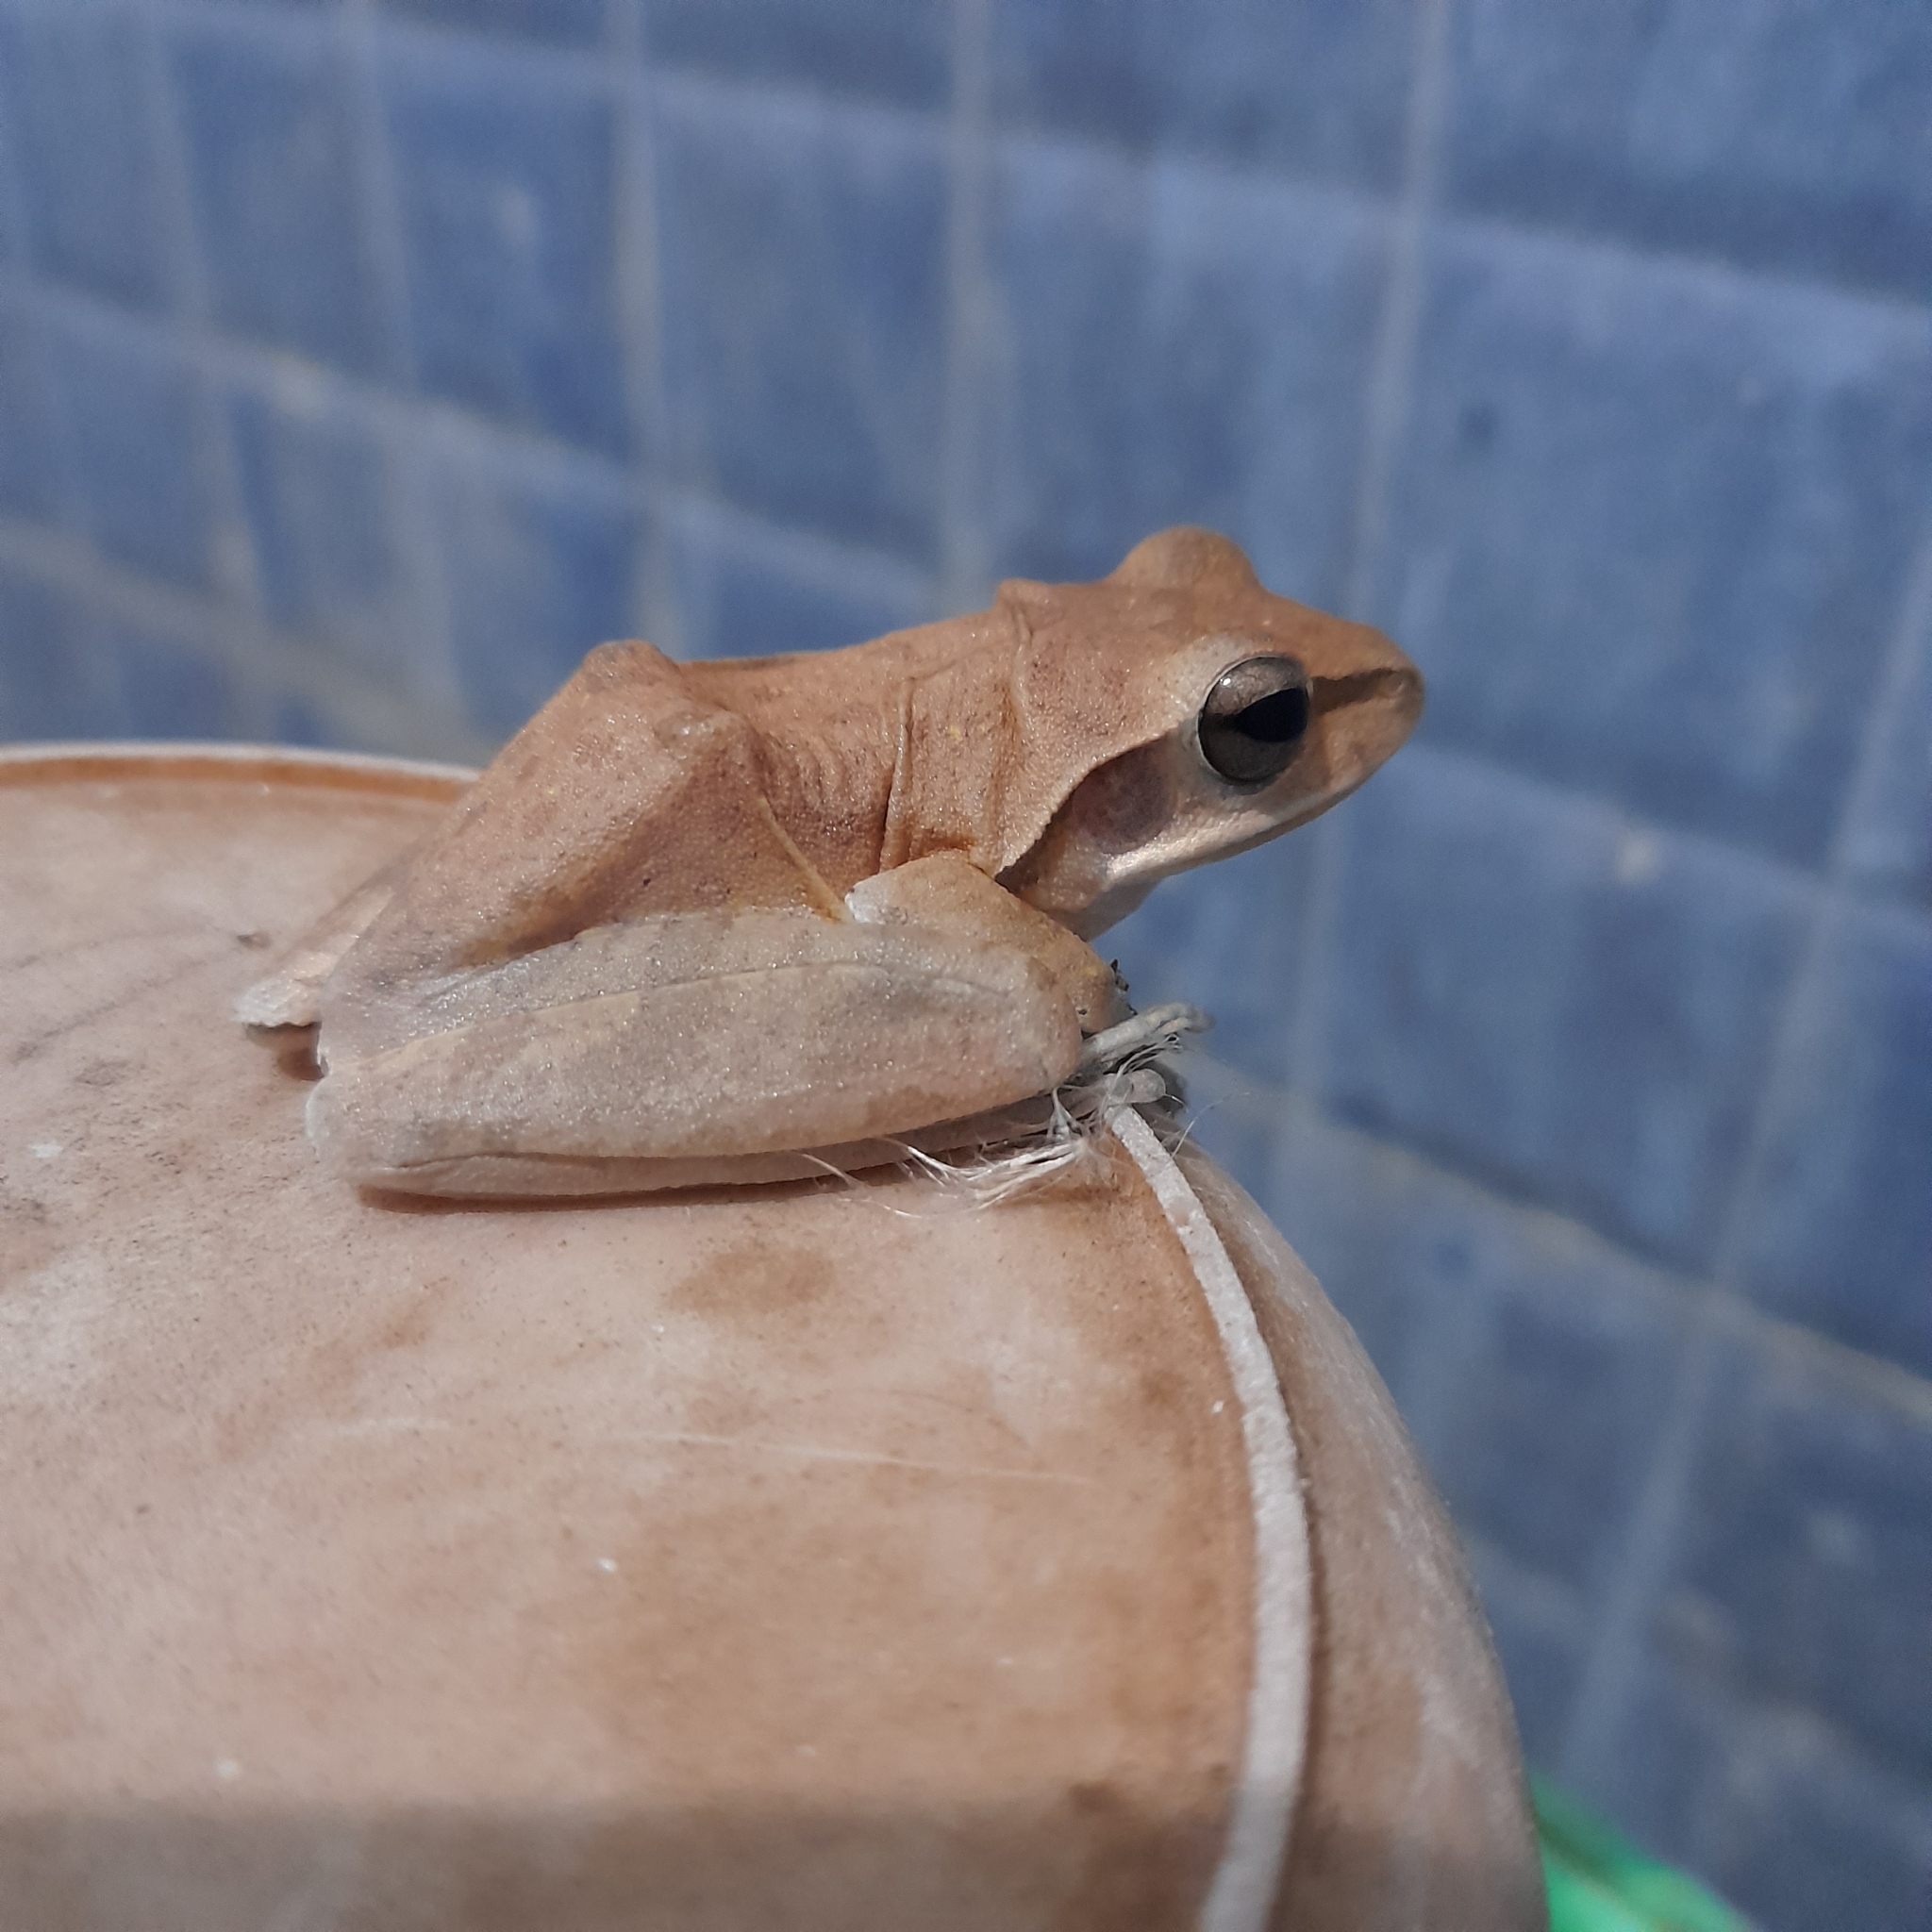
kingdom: Animalia
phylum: Chordata
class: Amphibia
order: Anura
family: Rhacophoridae
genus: Polypedates
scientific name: Polypedates maculatus
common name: Himalayan tree frog
